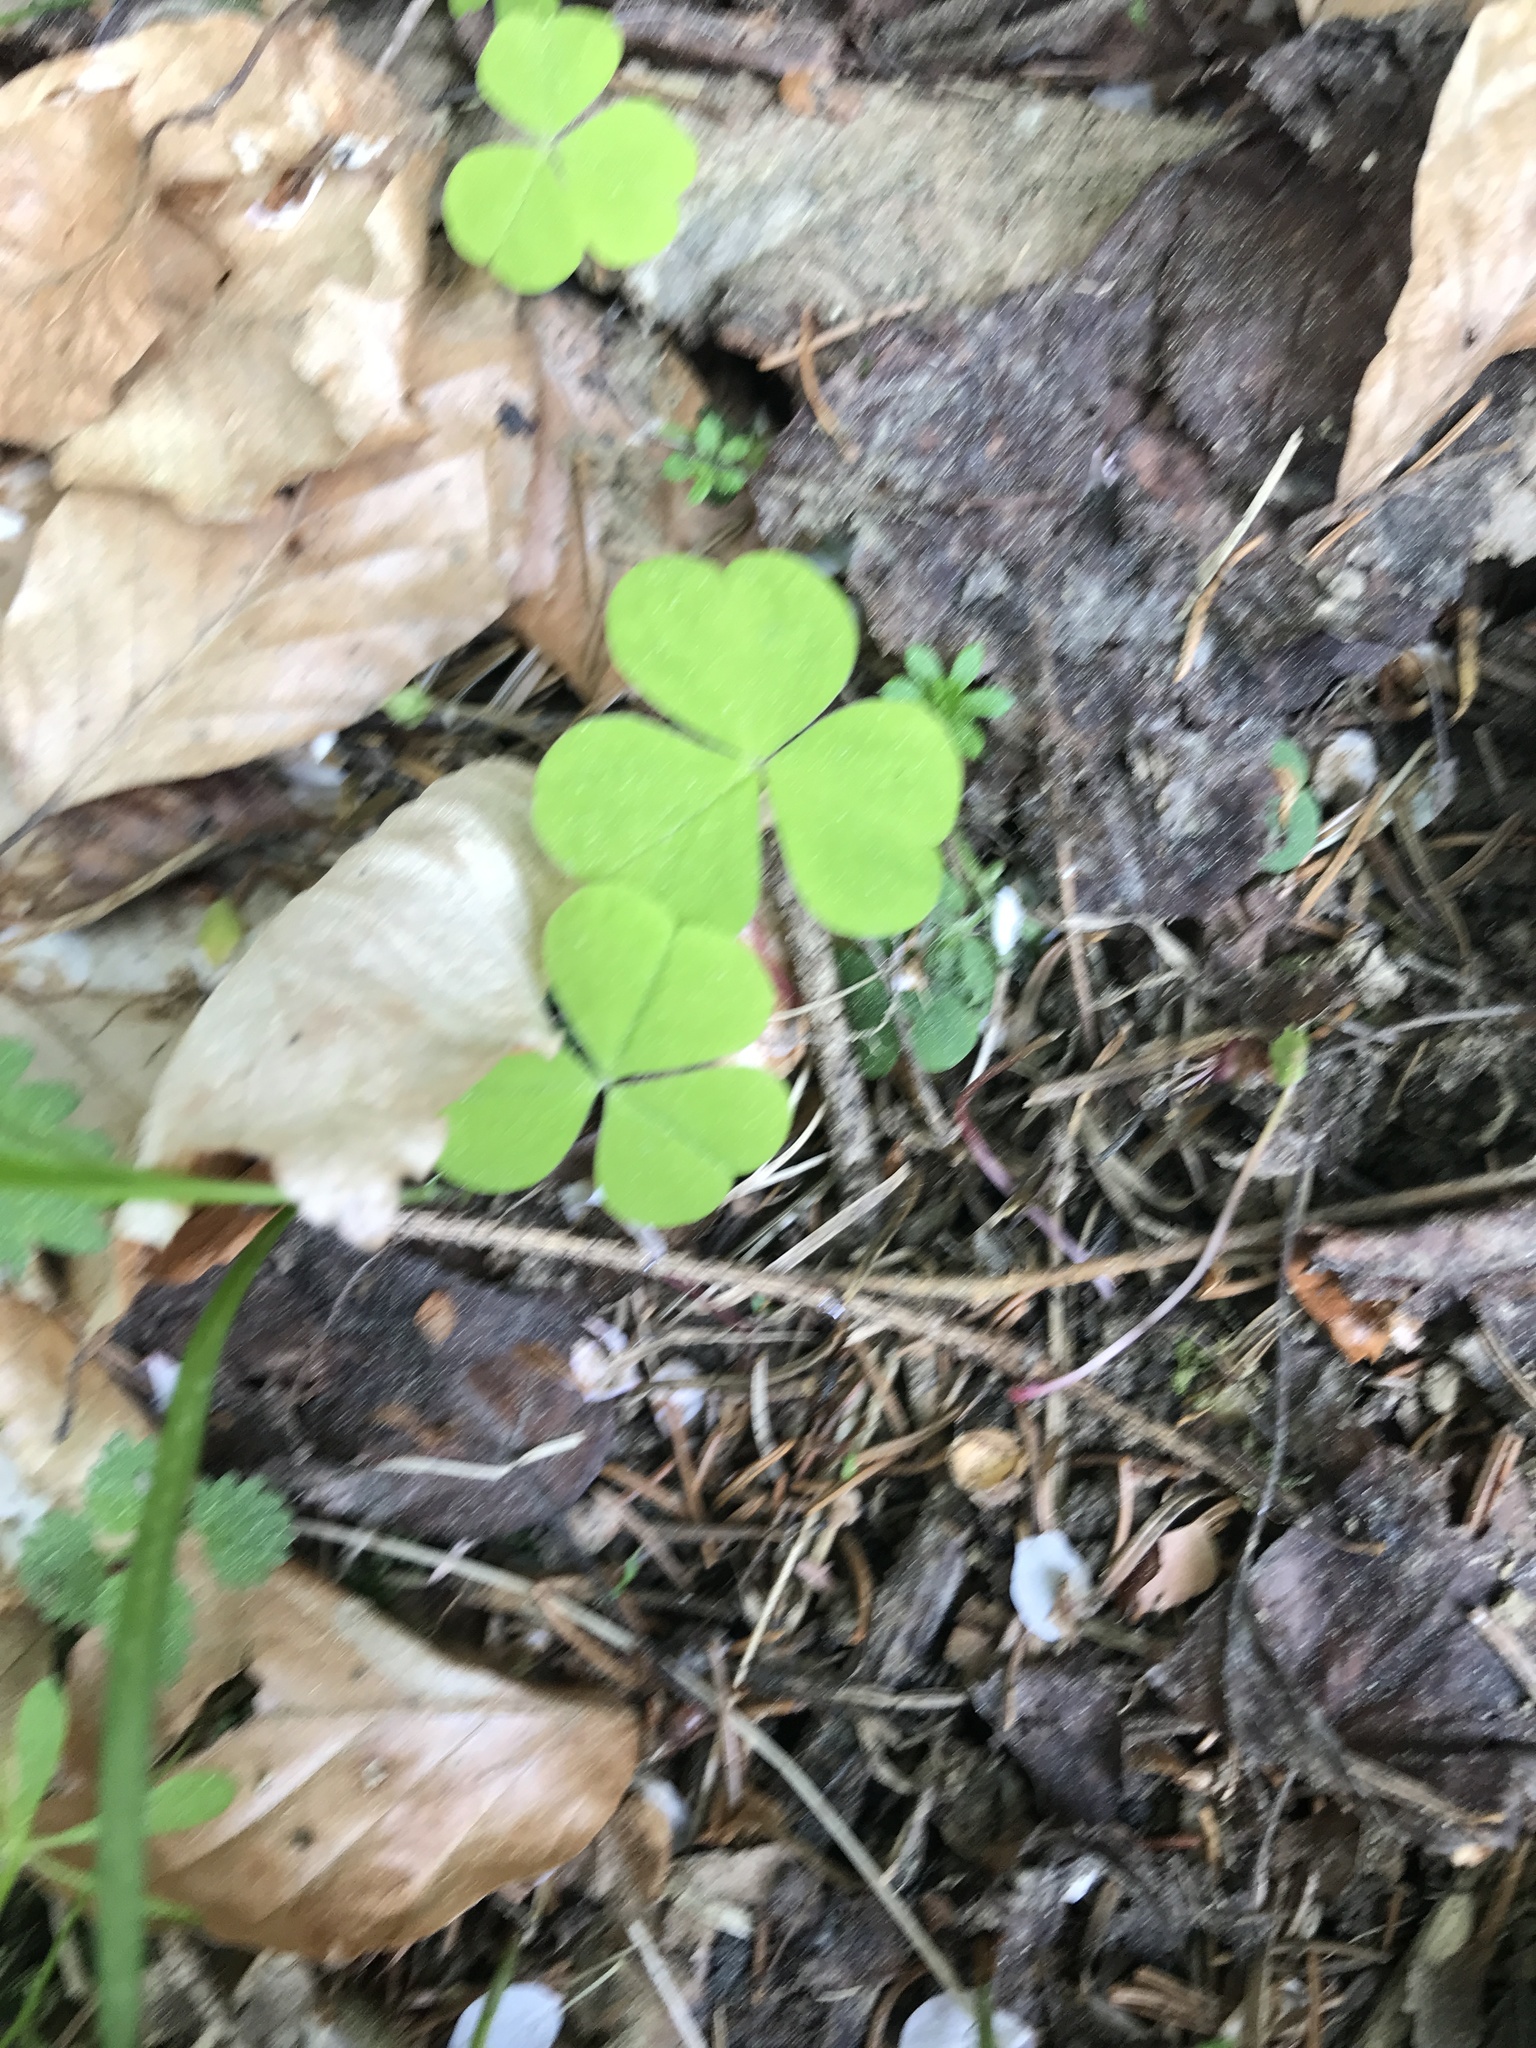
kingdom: Plantae
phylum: Tracheophyta
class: Magnoliopsida
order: Oxalidales
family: Oxalidaceae
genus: Oxalis
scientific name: Oxalis acetosella
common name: Wood-sorrel
